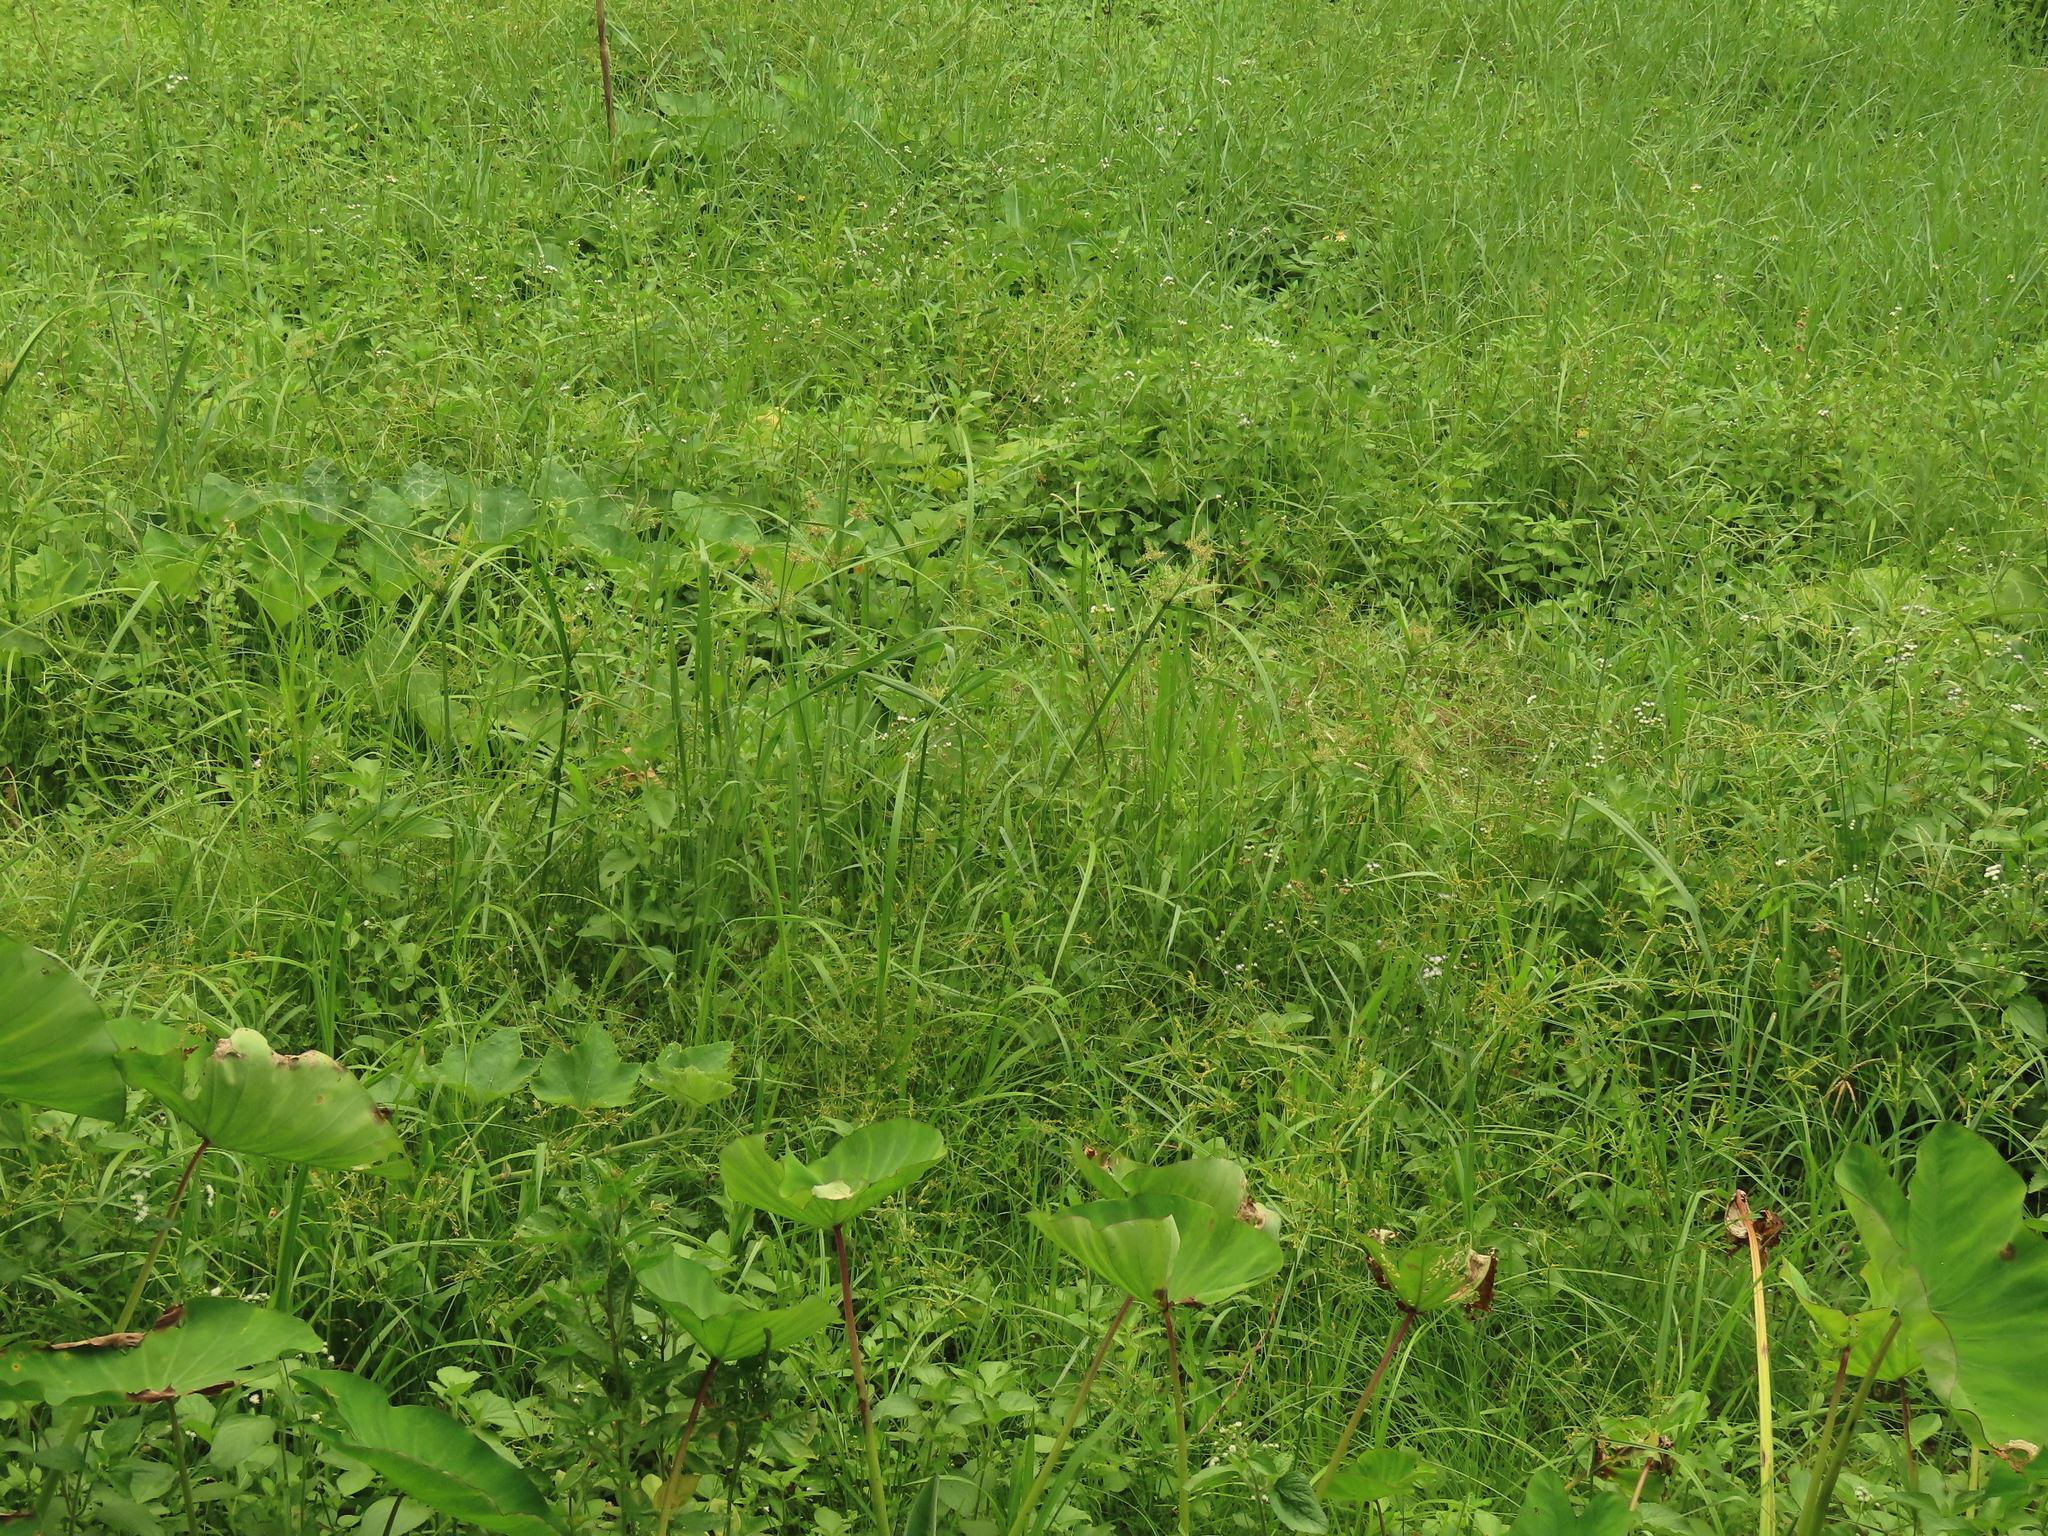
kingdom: Plantae
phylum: Tracheophyta
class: Liliopsida
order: Poales
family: Cyperaceae
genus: Cyperus
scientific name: Cyperus pilosus
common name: Fuzzy flatsedge
